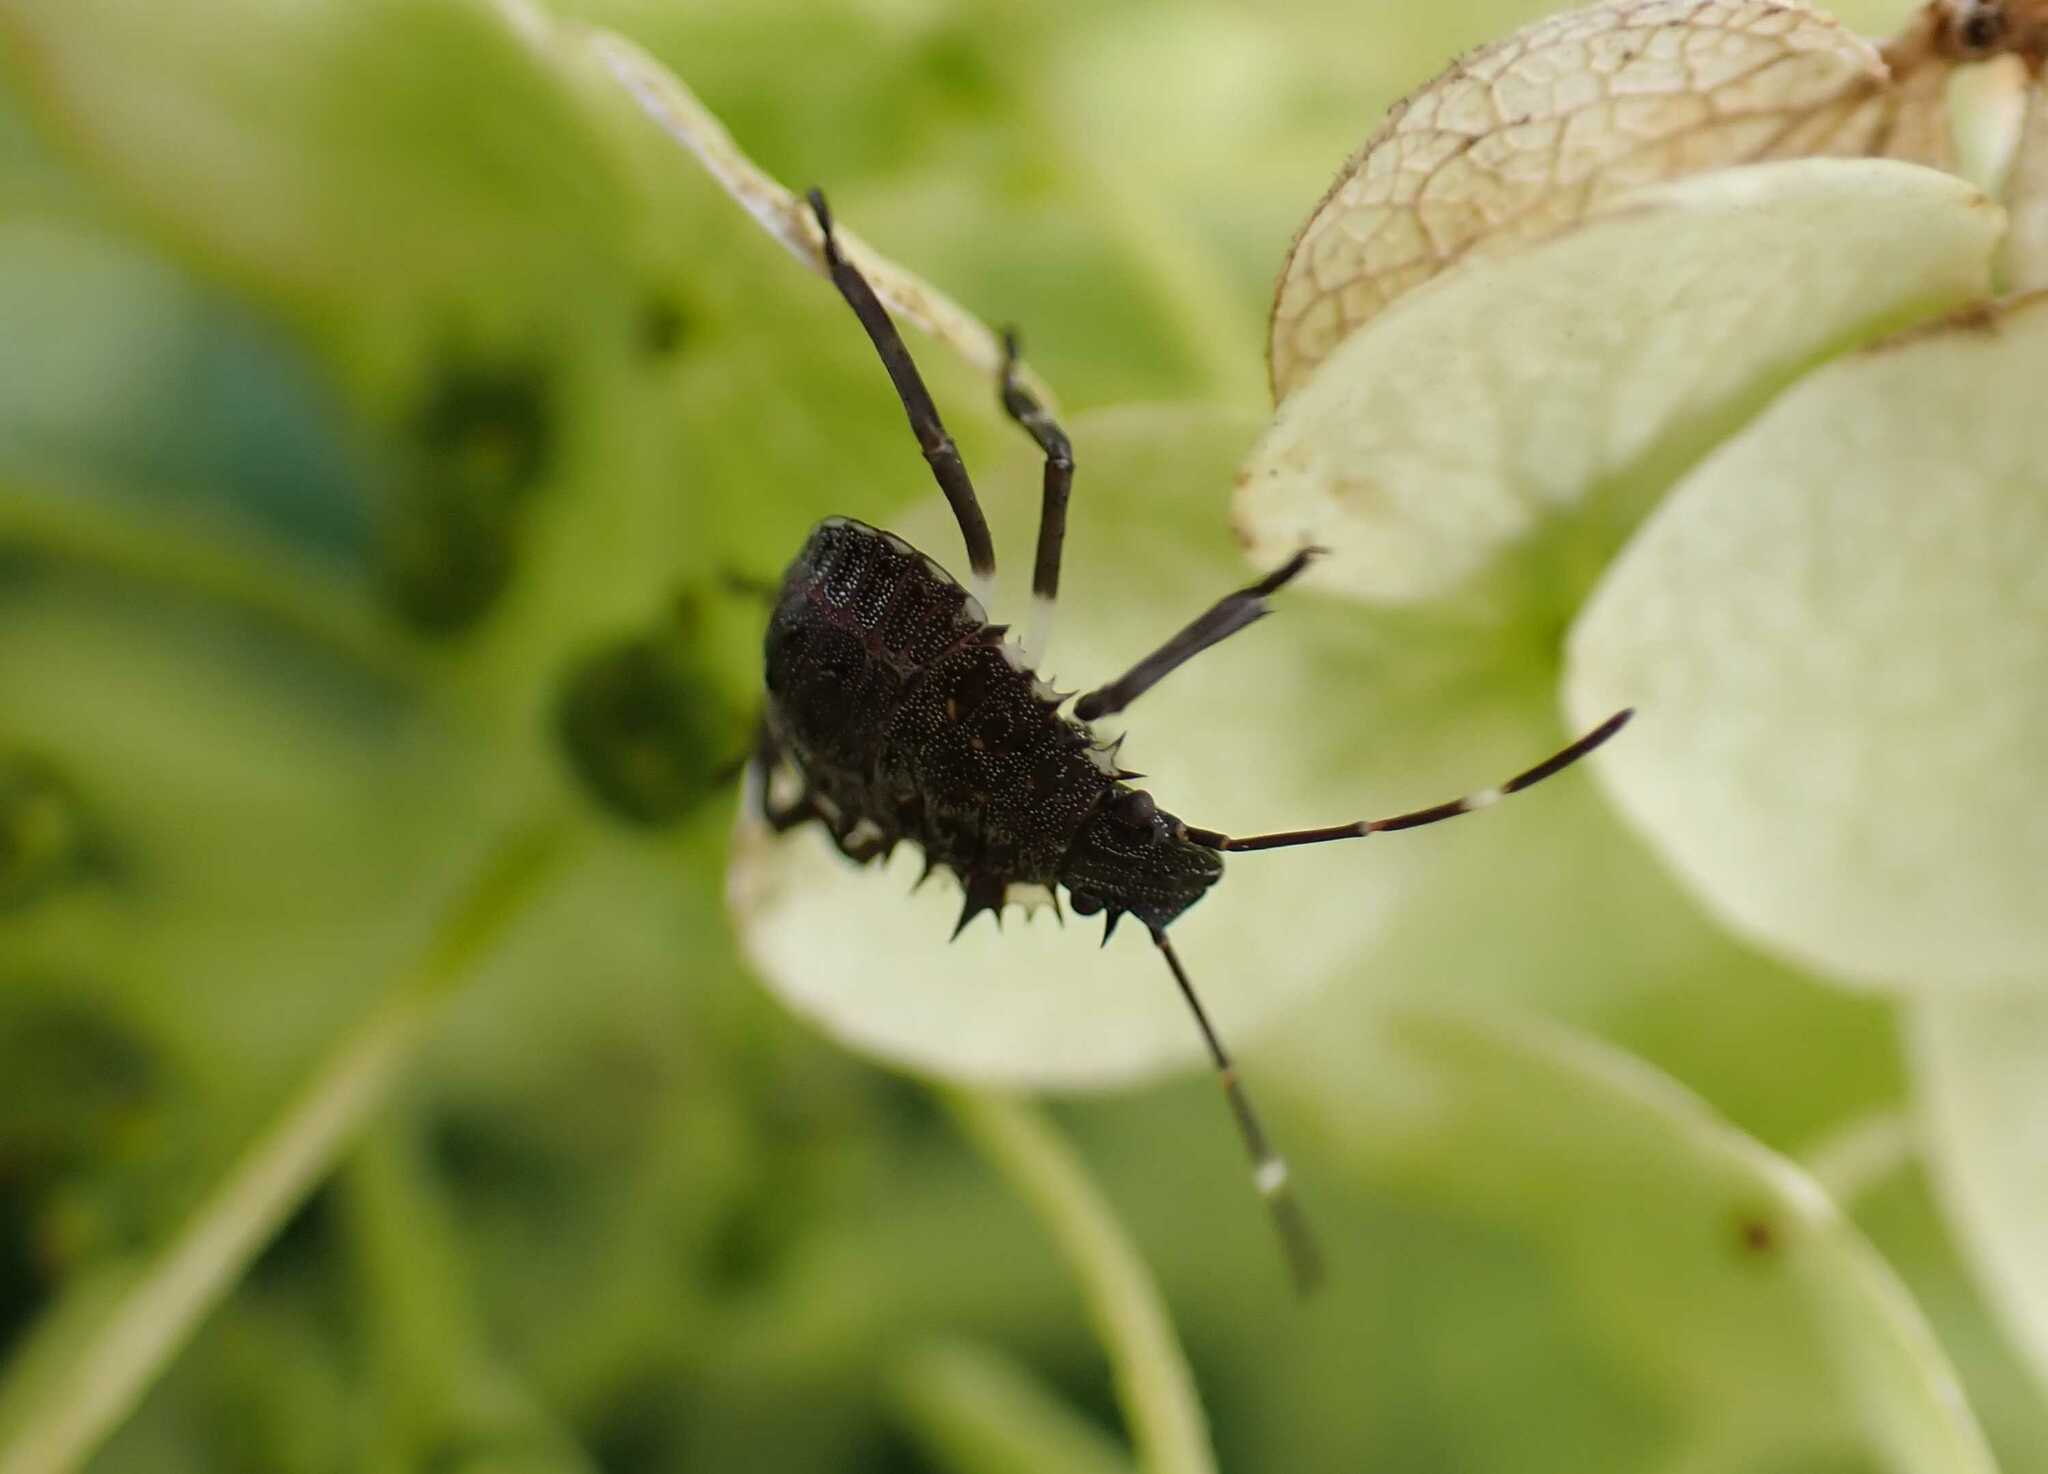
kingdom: Animalia
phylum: Arthropoda
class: Insecta
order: Hemiptera
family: Pentatomidae
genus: Halyomorpha
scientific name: Halyomorpha halys
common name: Brown marmorated stink bug
